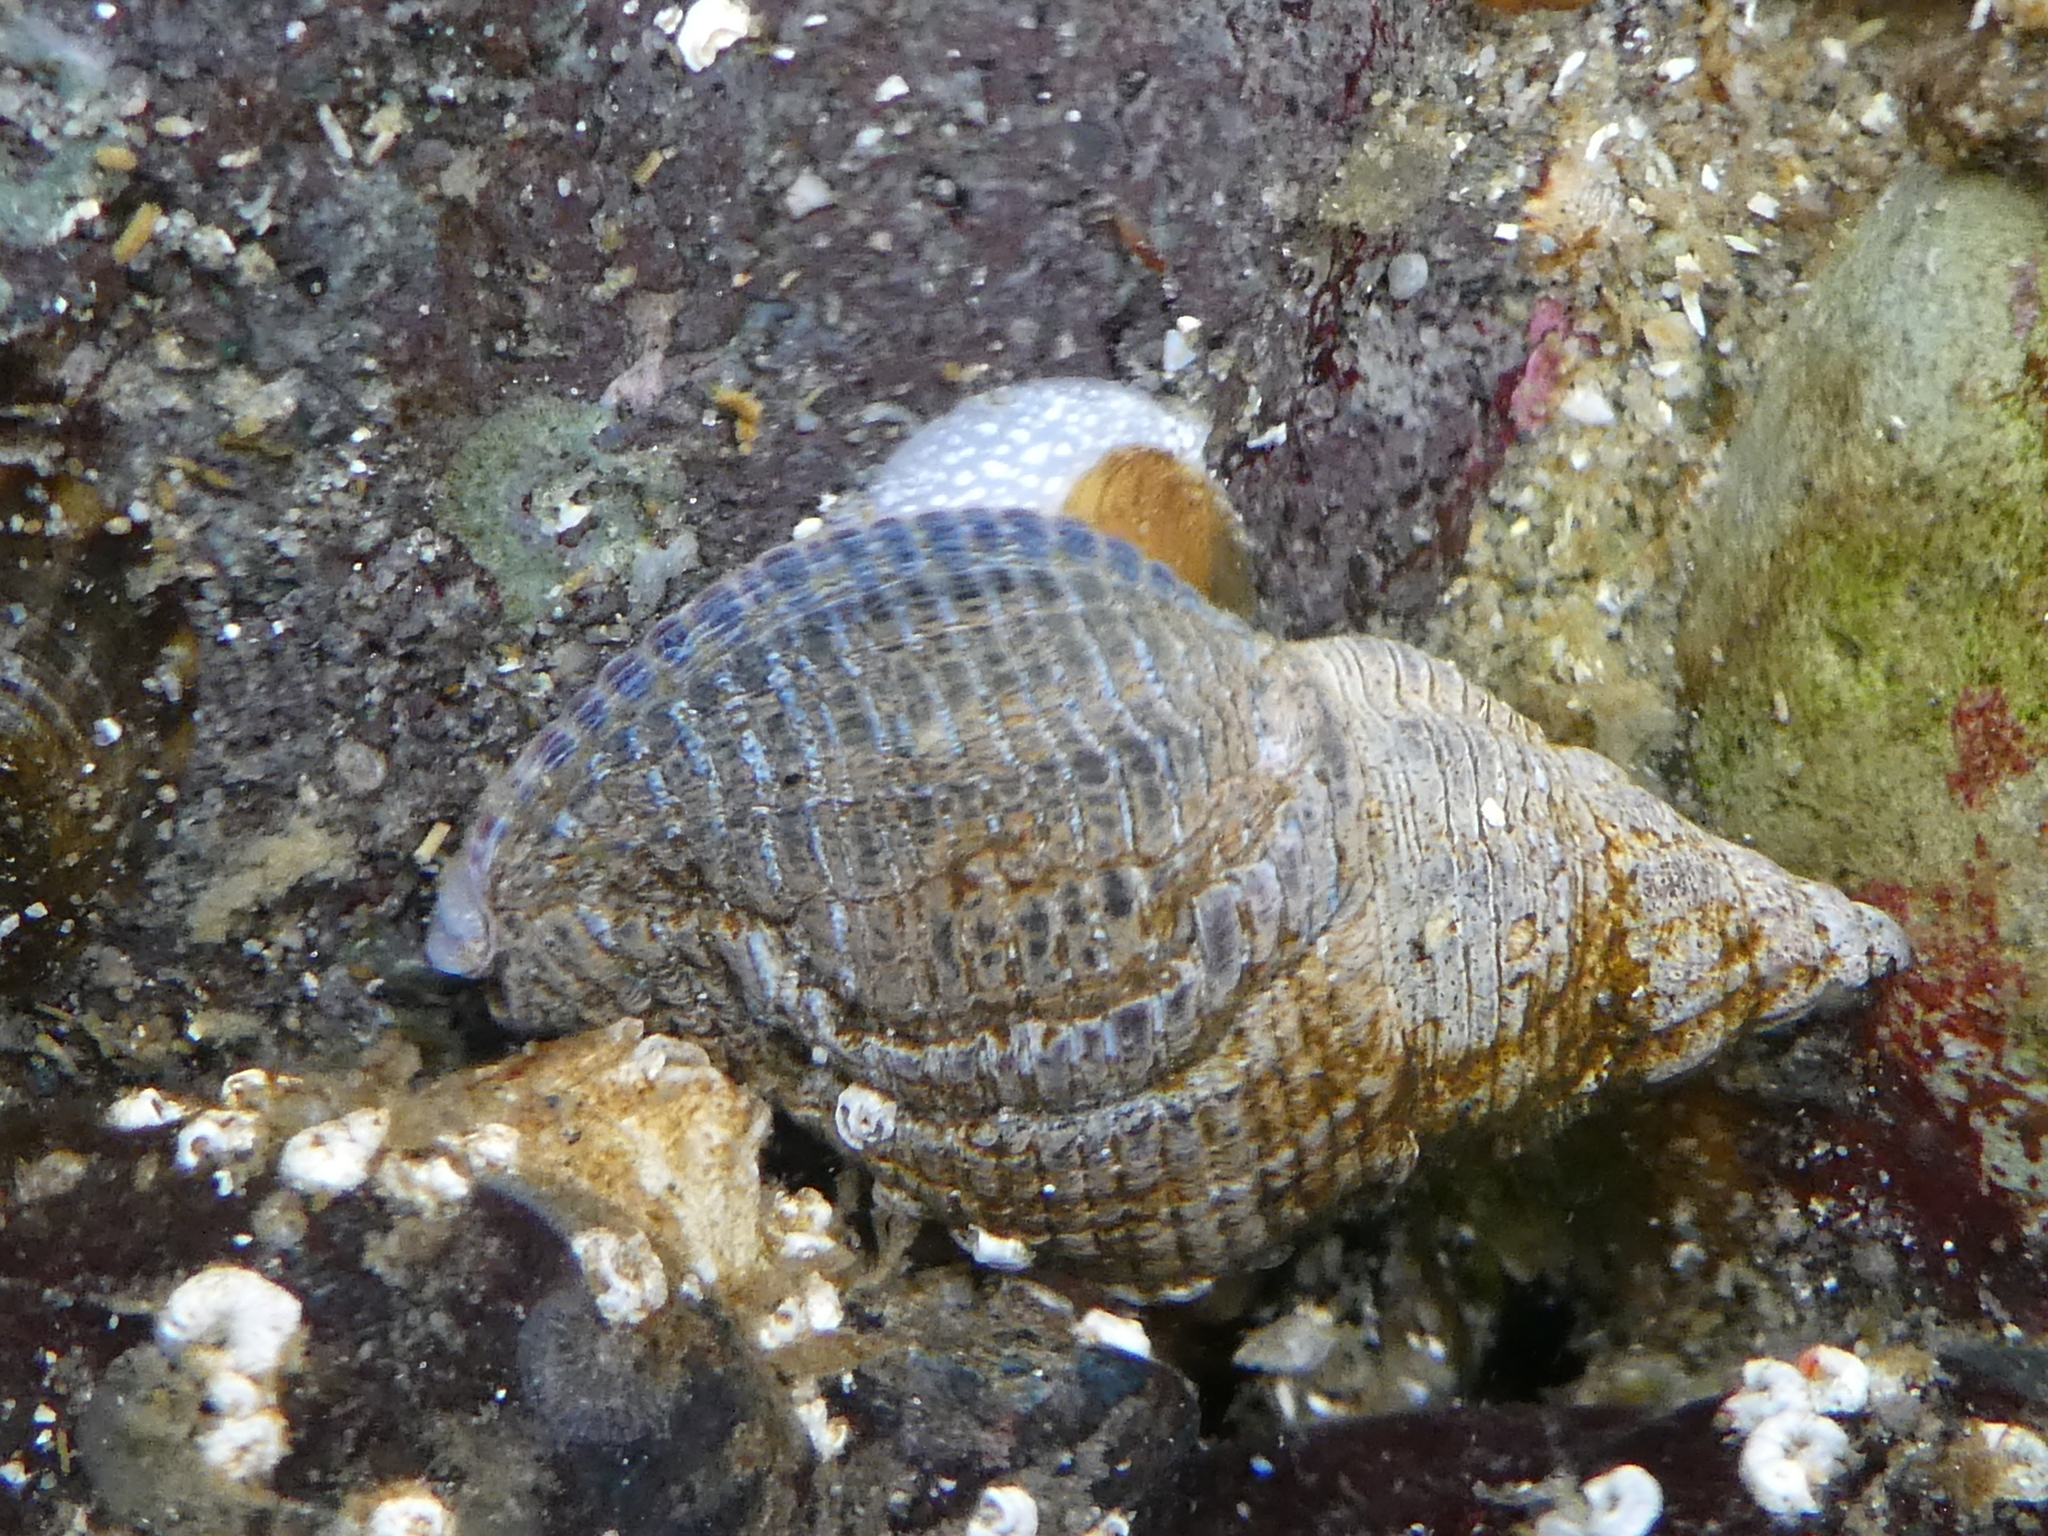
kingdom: Animalia
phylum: Mollusca
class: Gastropoda
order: Neogastropoda
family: Tudiclidae
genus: Lirabuccinum
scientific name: Lirabuccinum dirum
